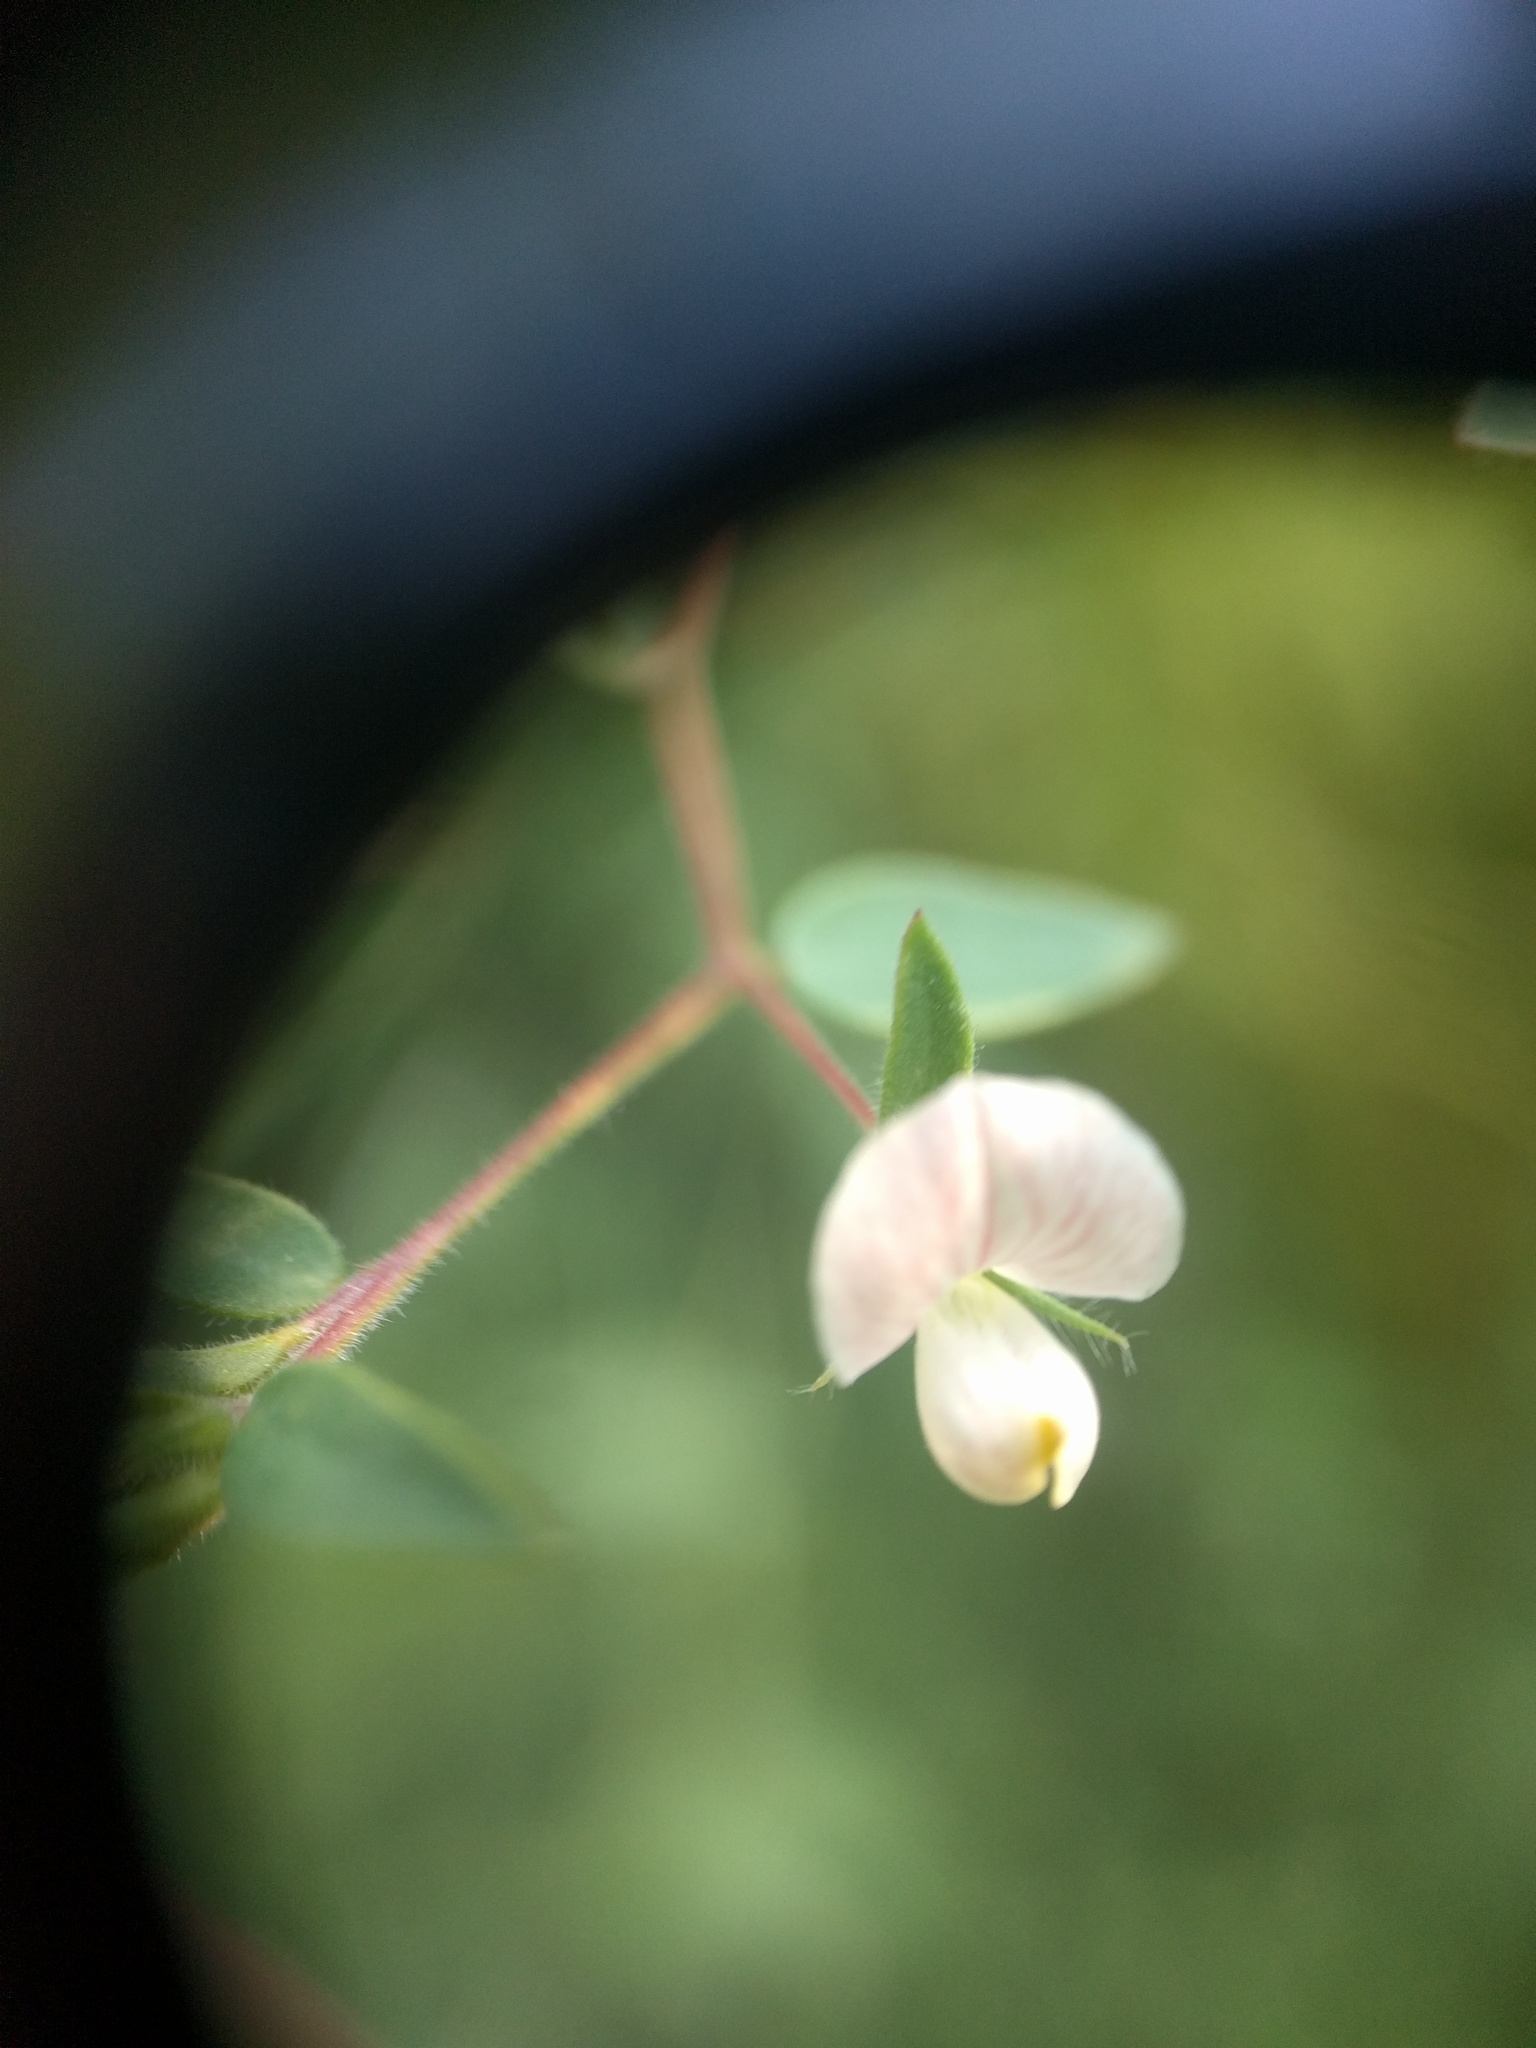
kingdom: Plantae
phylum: Tracheophyta
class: Magnoliopsida
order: Fabales
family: Fabaceae
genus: Acmispon
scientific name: Acmispon americanus
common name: American bird's-foot trefoil
